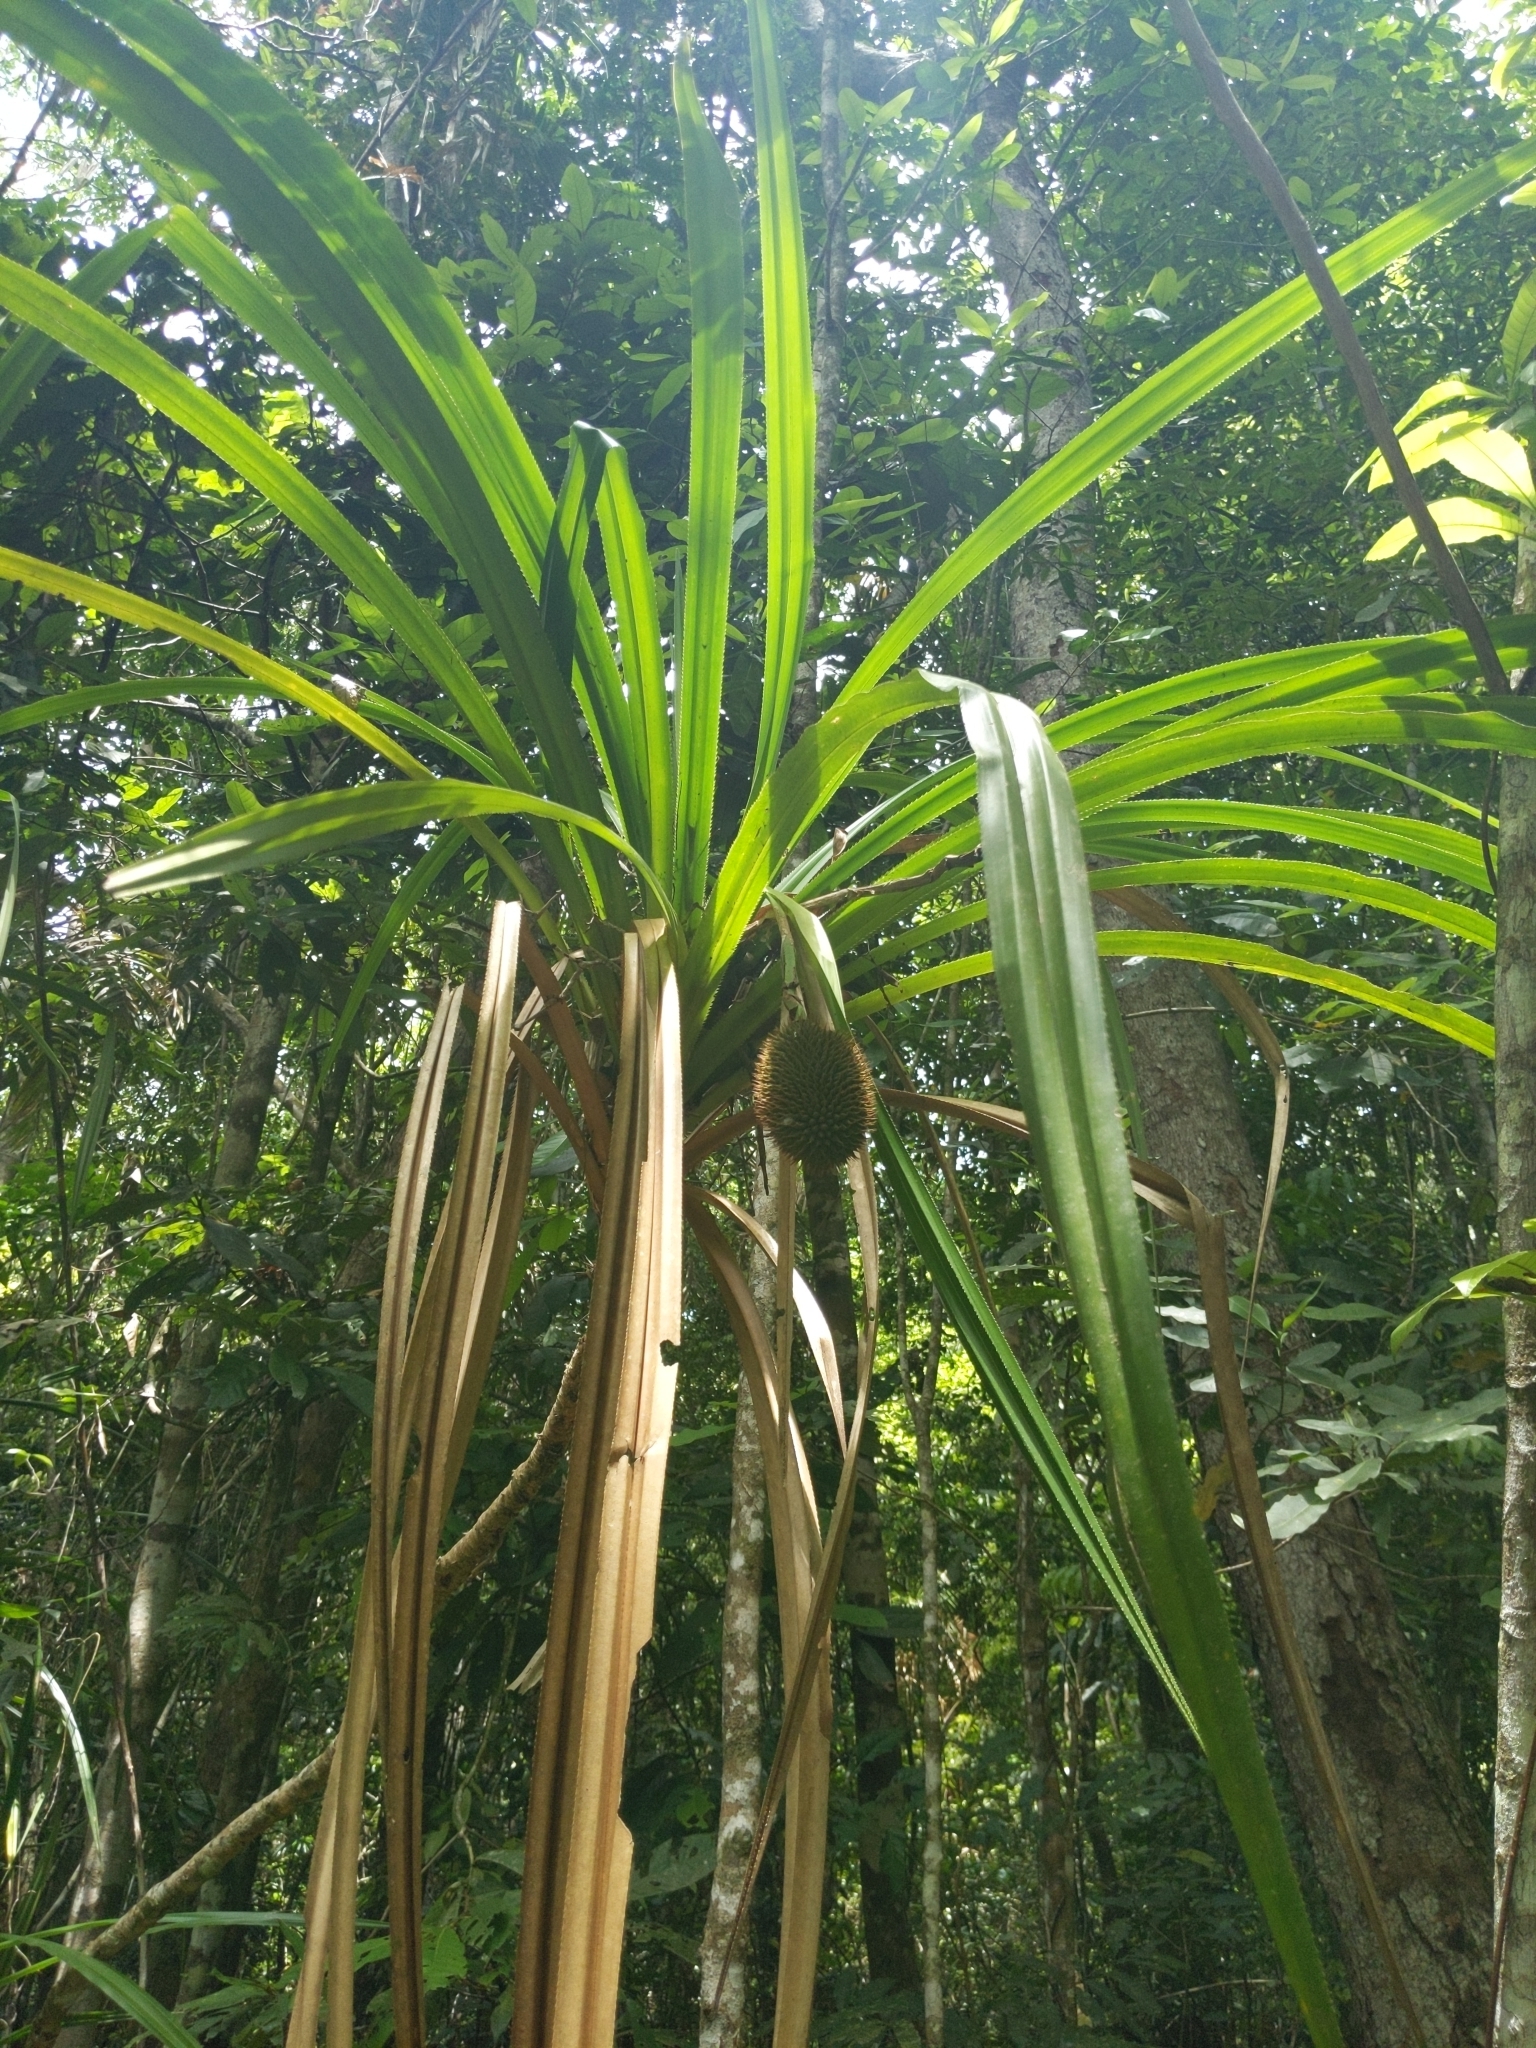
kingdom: Plantae
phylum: Tracheophyta
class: Liliopsida
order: Pandanales
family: Pandanaceae
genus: Benstonea
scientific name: Benstonea monticola
